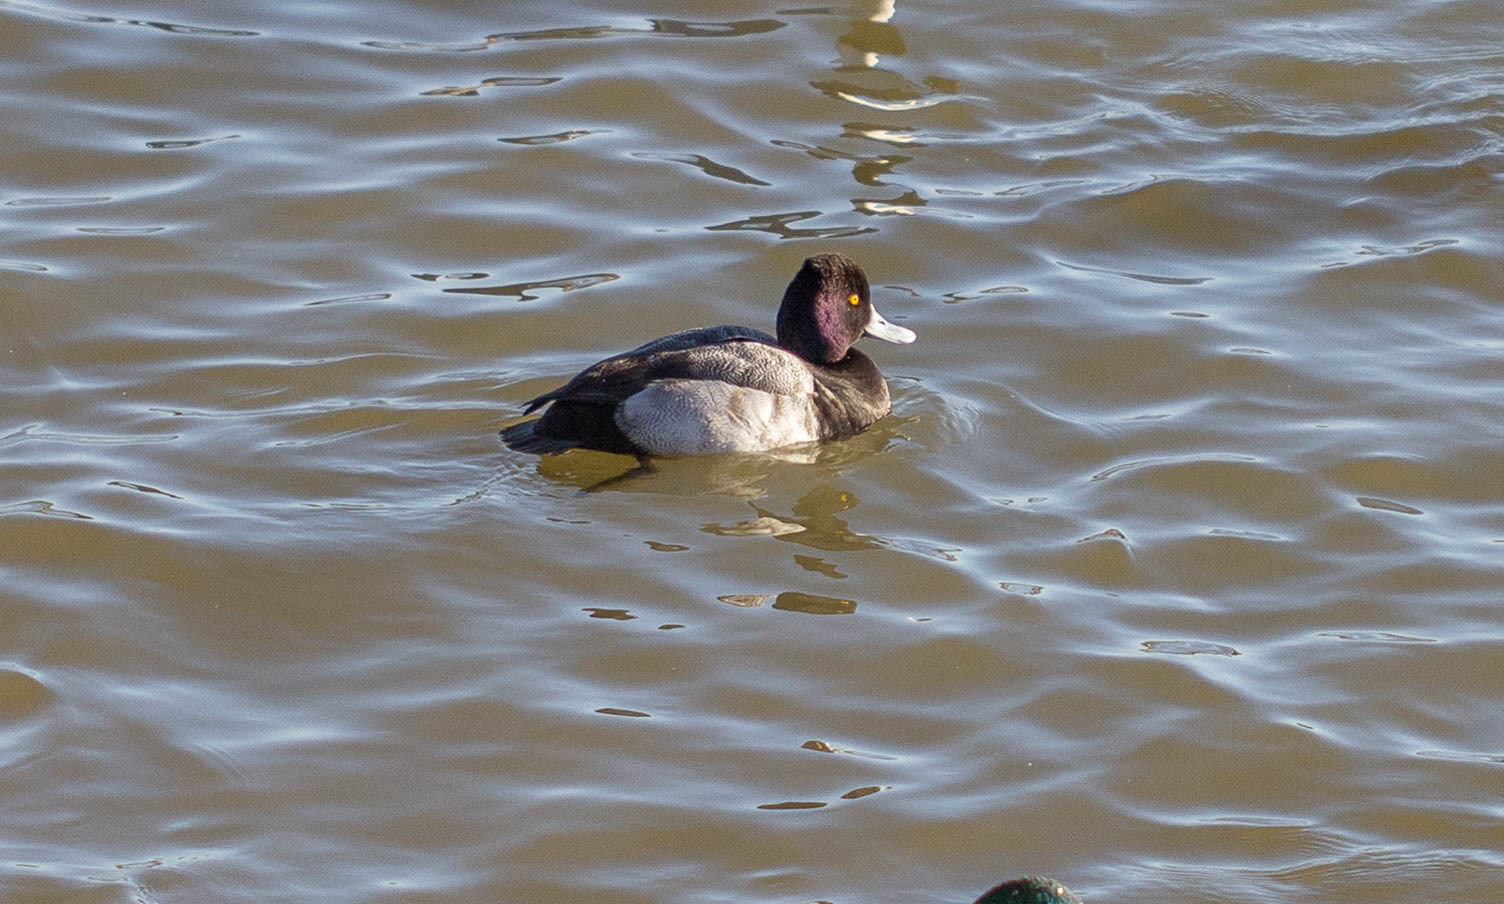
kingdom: Animalia
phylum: Chordata
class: Aves
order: Anseriformes
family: Anatidae
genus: Aythya
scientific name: Aythya affinis
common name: Lesser scaup
